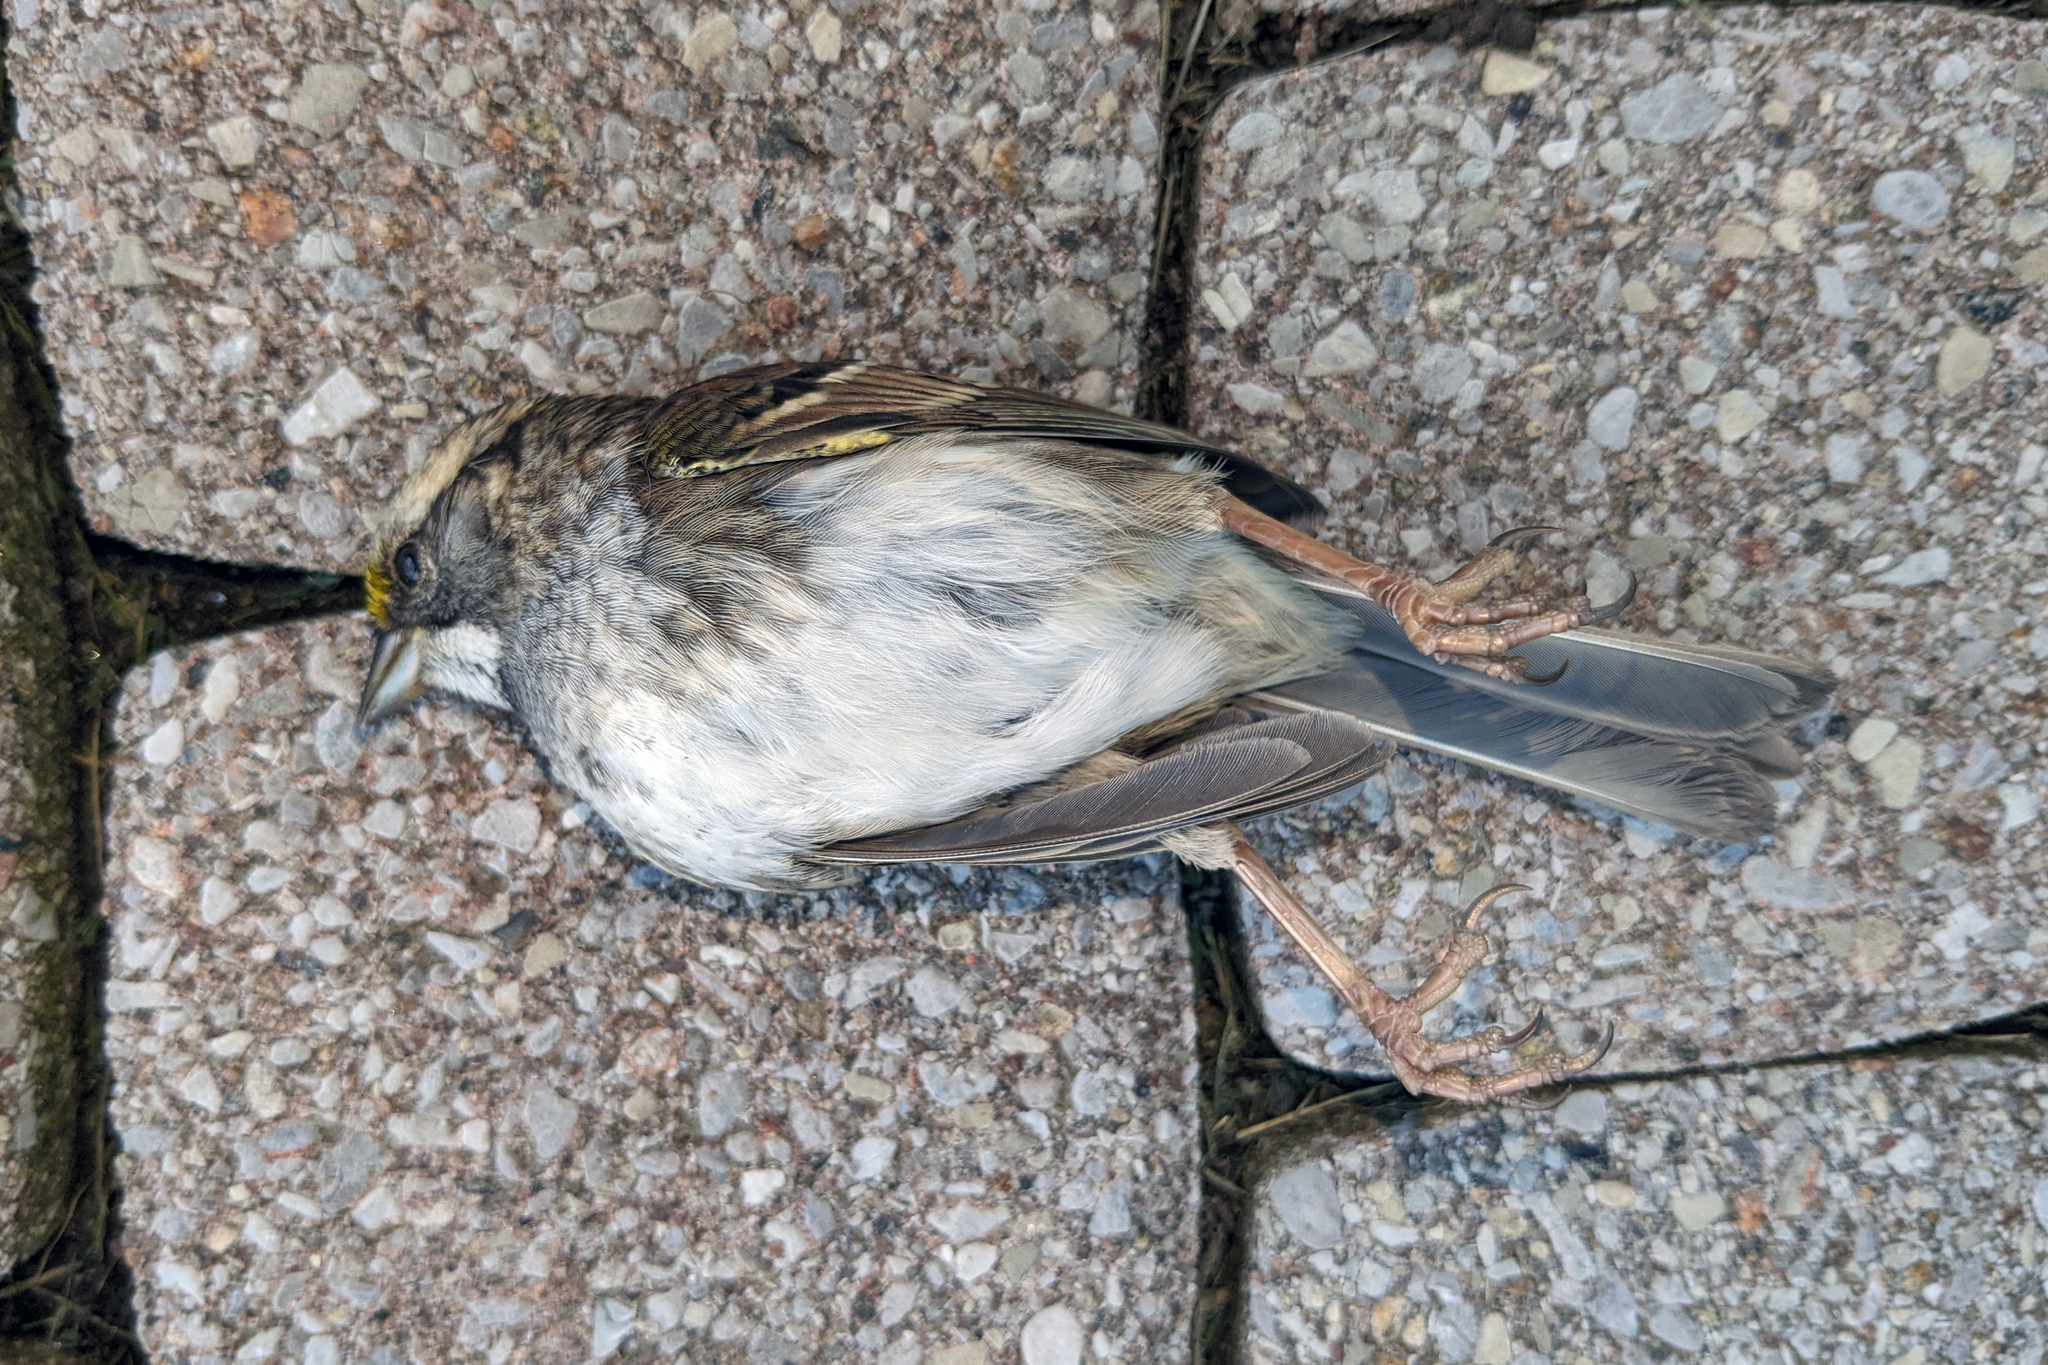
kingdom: Animalia
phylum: Chordata
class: Aves
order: Passeriformes
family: Passerellidae
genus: Zonotrichia
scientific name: Zonotrichia albicollis
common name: White-throated sparrow
